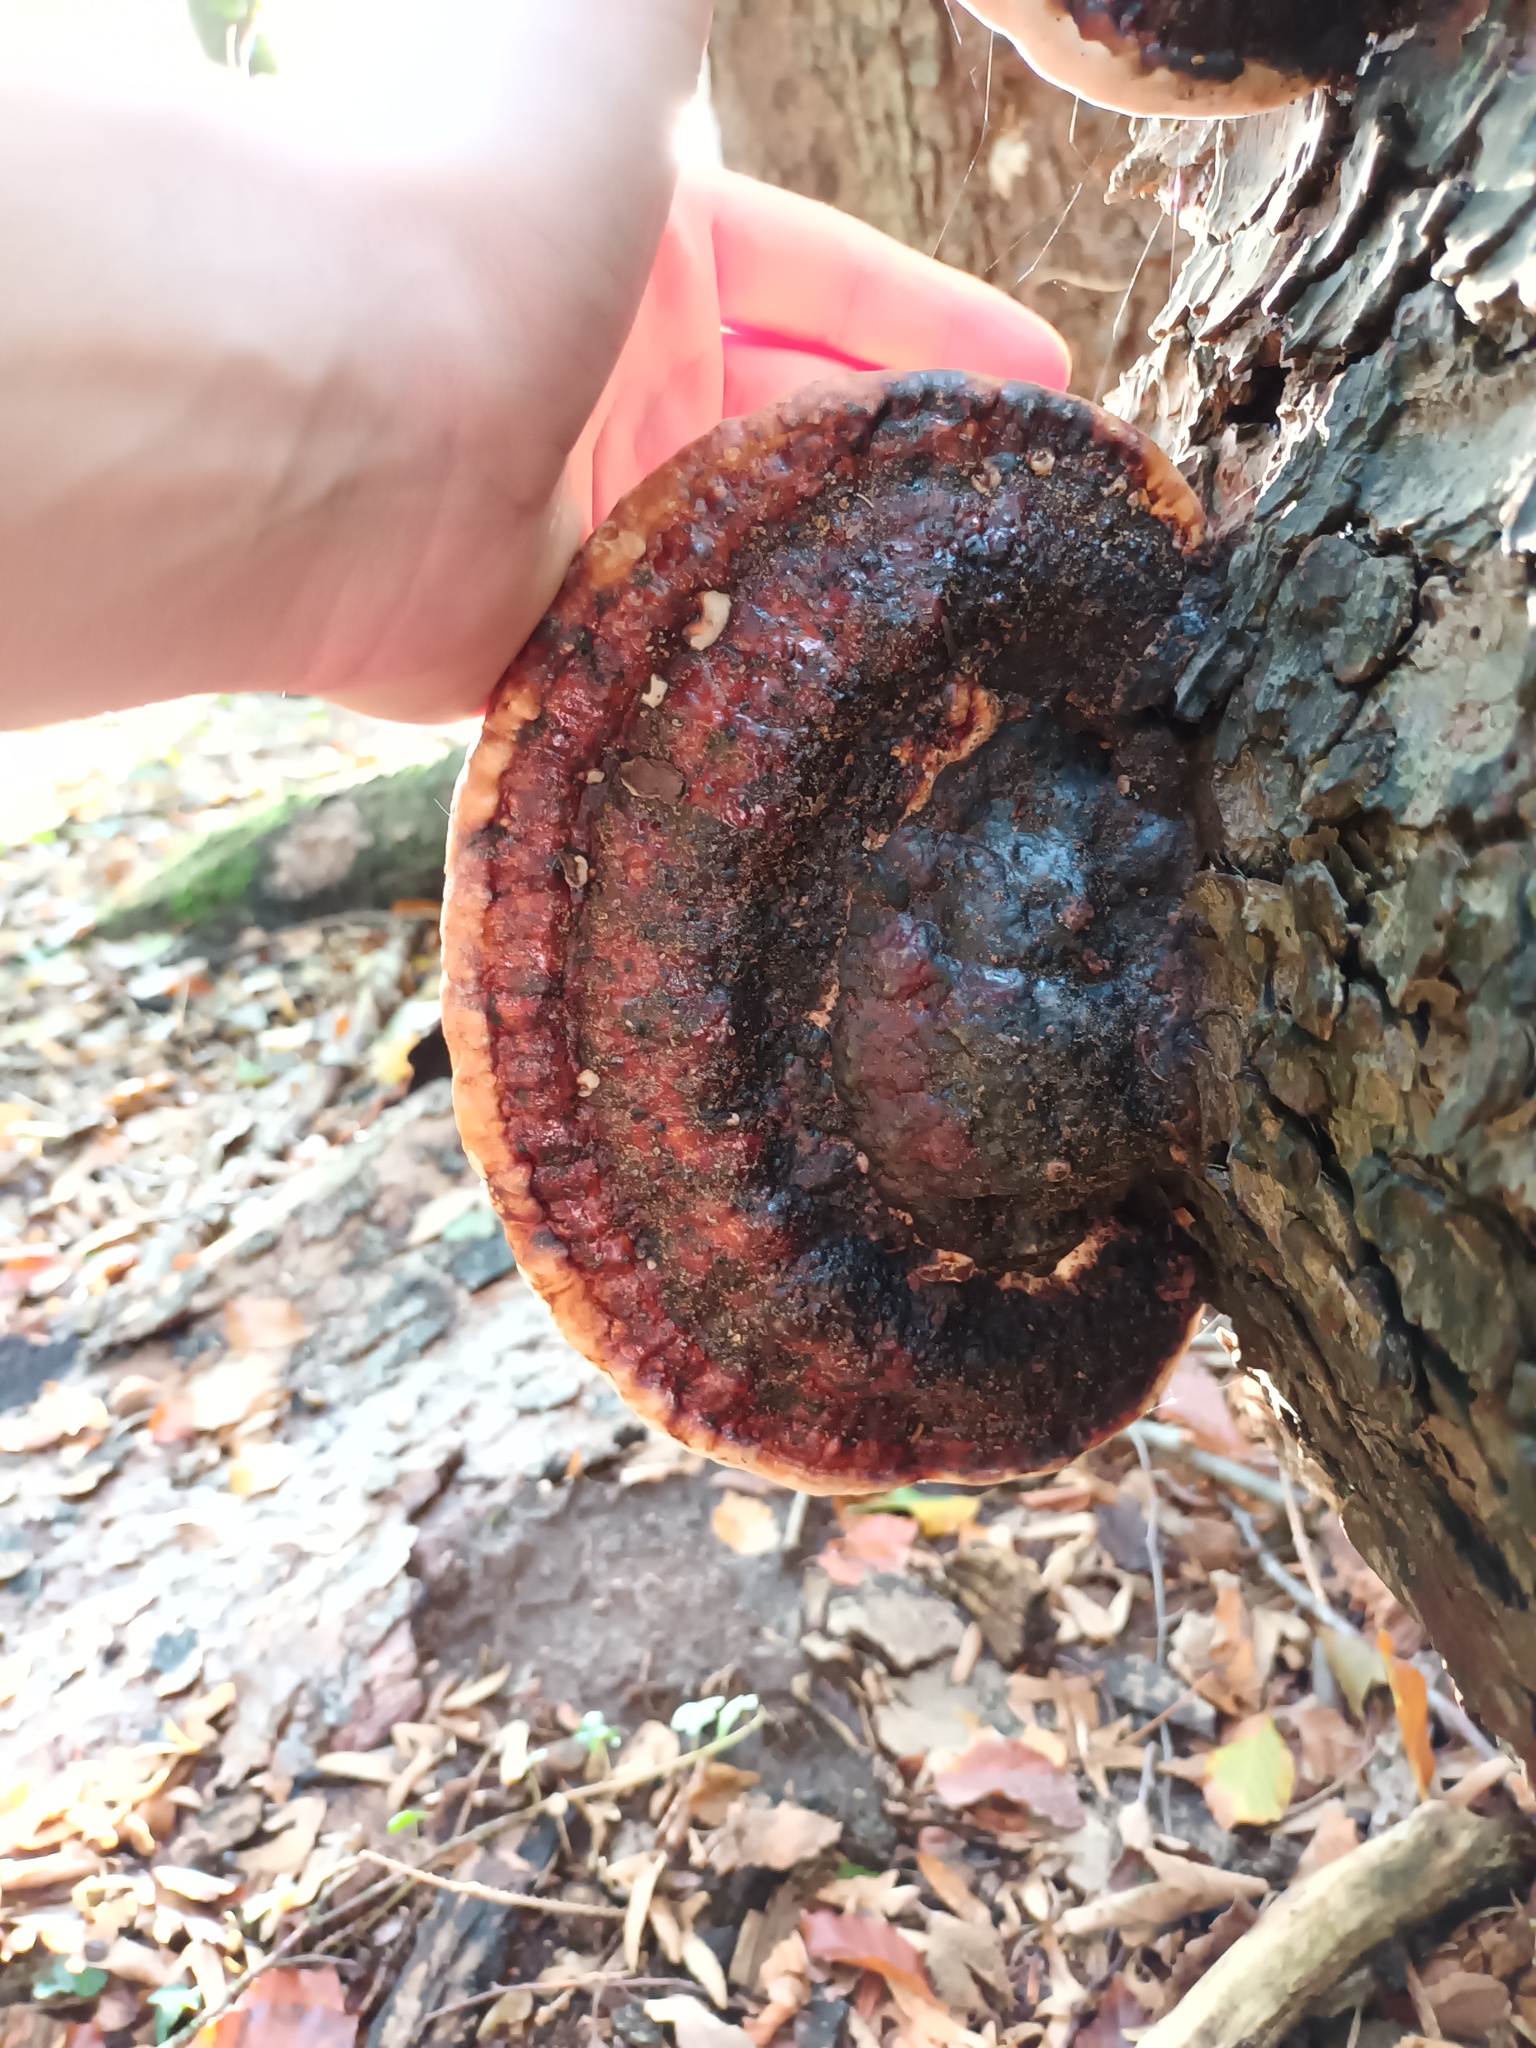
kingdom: Fungi
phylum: Basidiomycota
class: Agaricomycetes
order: Polyporales
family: Fomitopsidaceae
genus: Fomitopsis
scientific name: Fomitopsis pinicola
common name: Red-belted bracket
